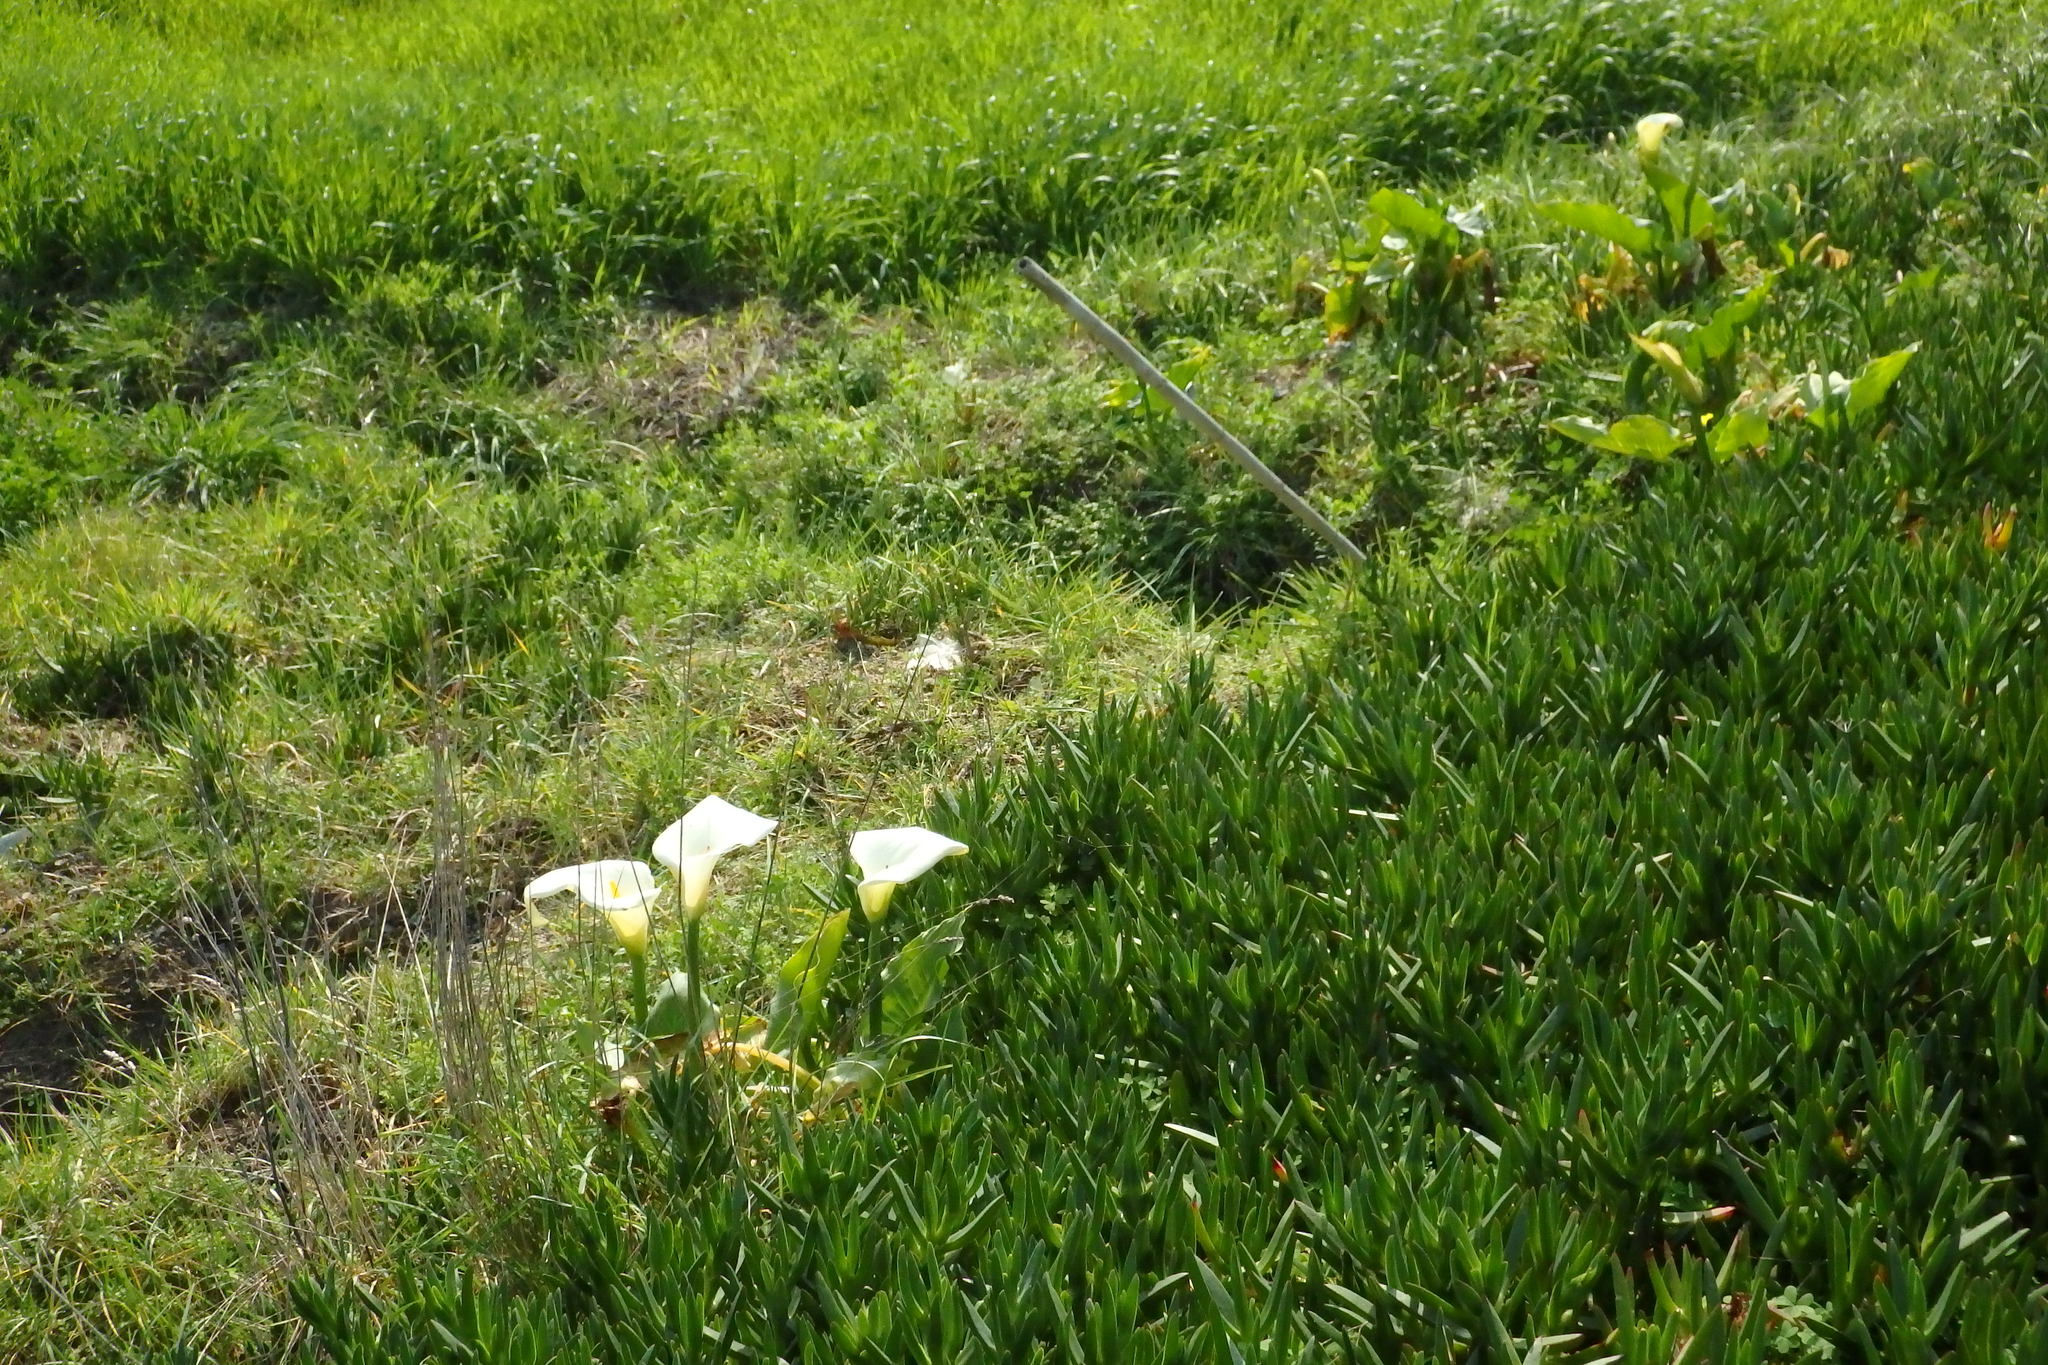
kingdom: Plantae
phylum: Tracheophyta
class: Liliopsida
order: Alismatales
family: Araceae
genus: Zantedeschia
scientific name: Zantedeschia aethiopica
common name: Altar-lily
